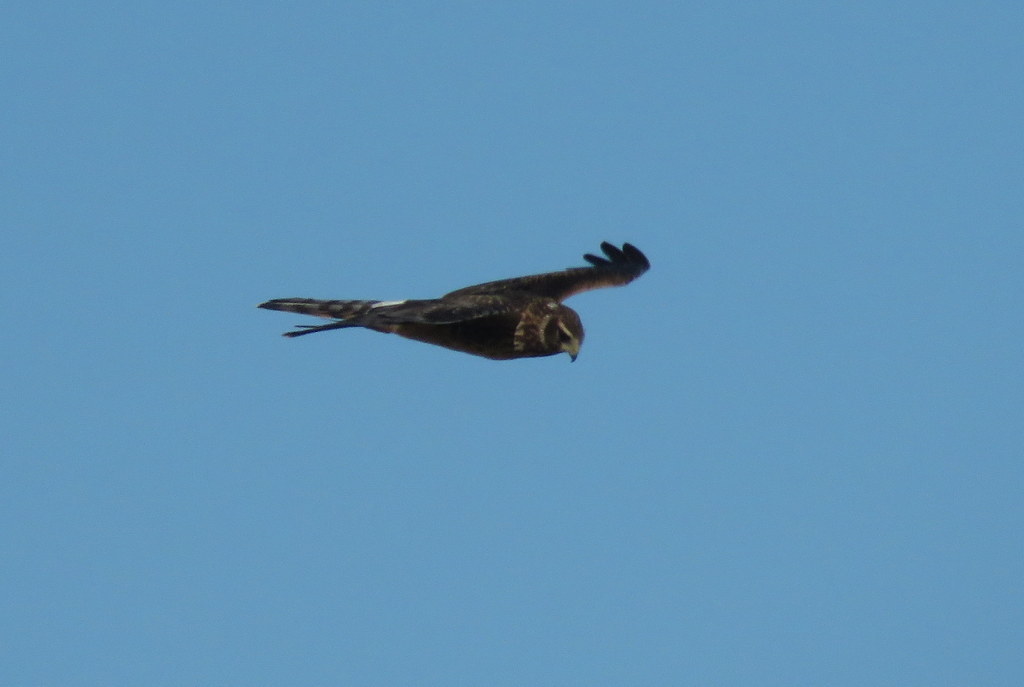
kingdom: Animalia
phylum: Chordata
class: Aves
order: Accipitriformes
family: Accipitridae
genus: Circus
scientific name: Circus cinereus
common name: Cinereous harrier
